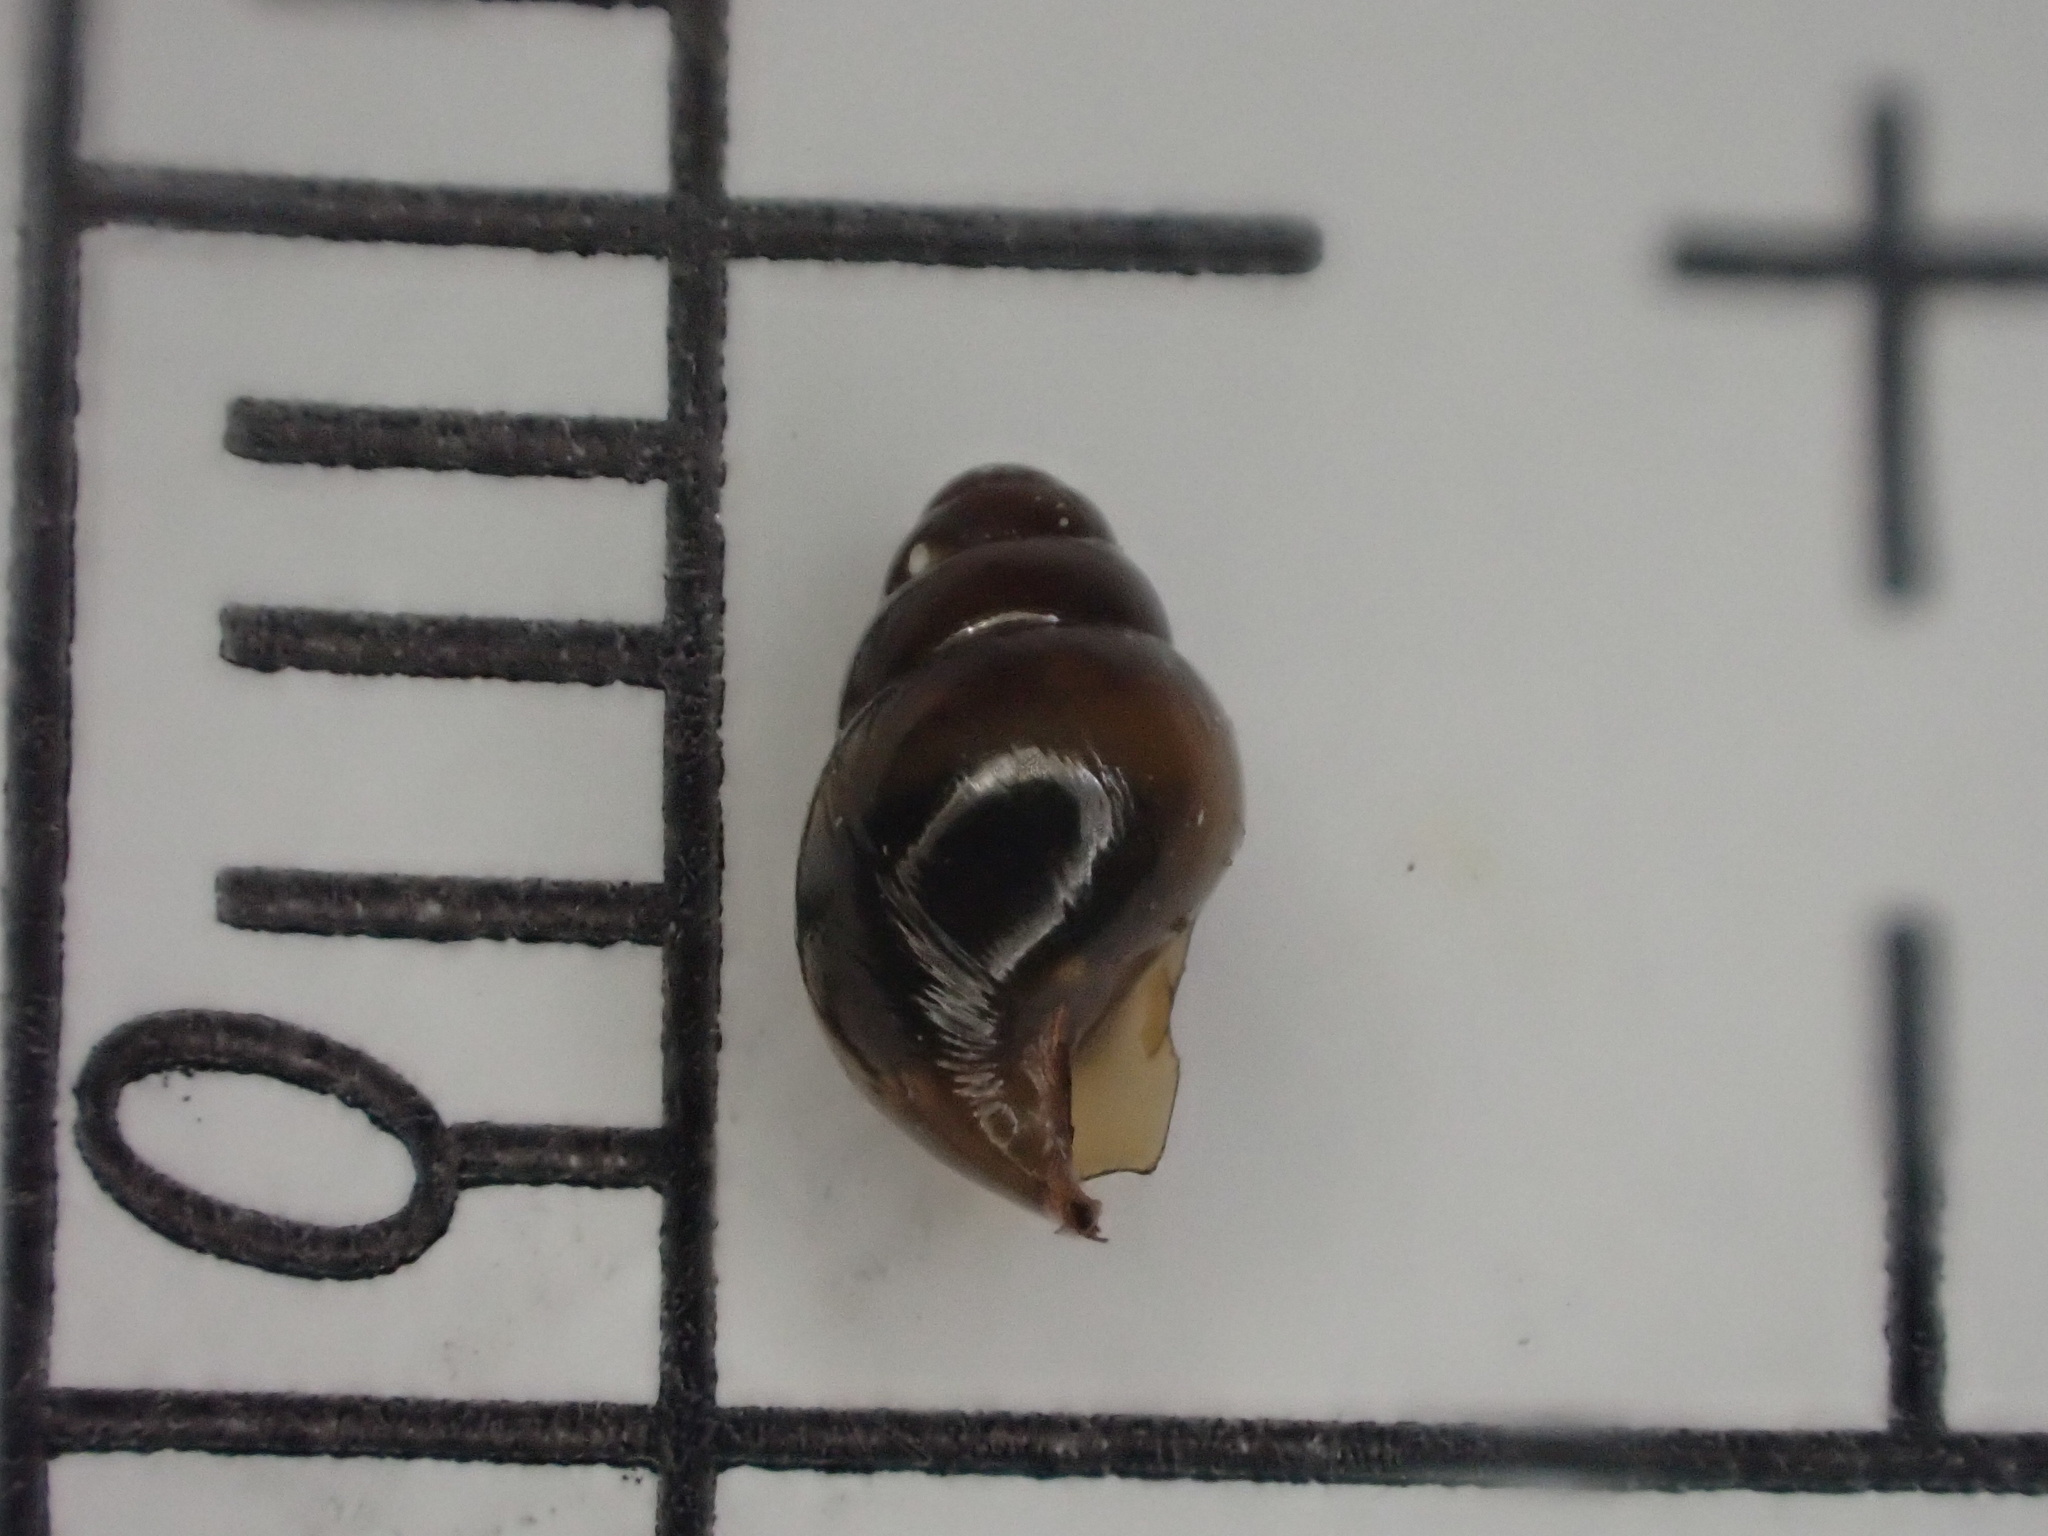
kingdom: Animalia
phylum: Mollusca
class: Gastropoda
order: Stylommatophora
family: Cochlicopidae
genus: Cochlicopa
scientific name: Cochlicopa lubrica
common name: Glossy pillar snail
